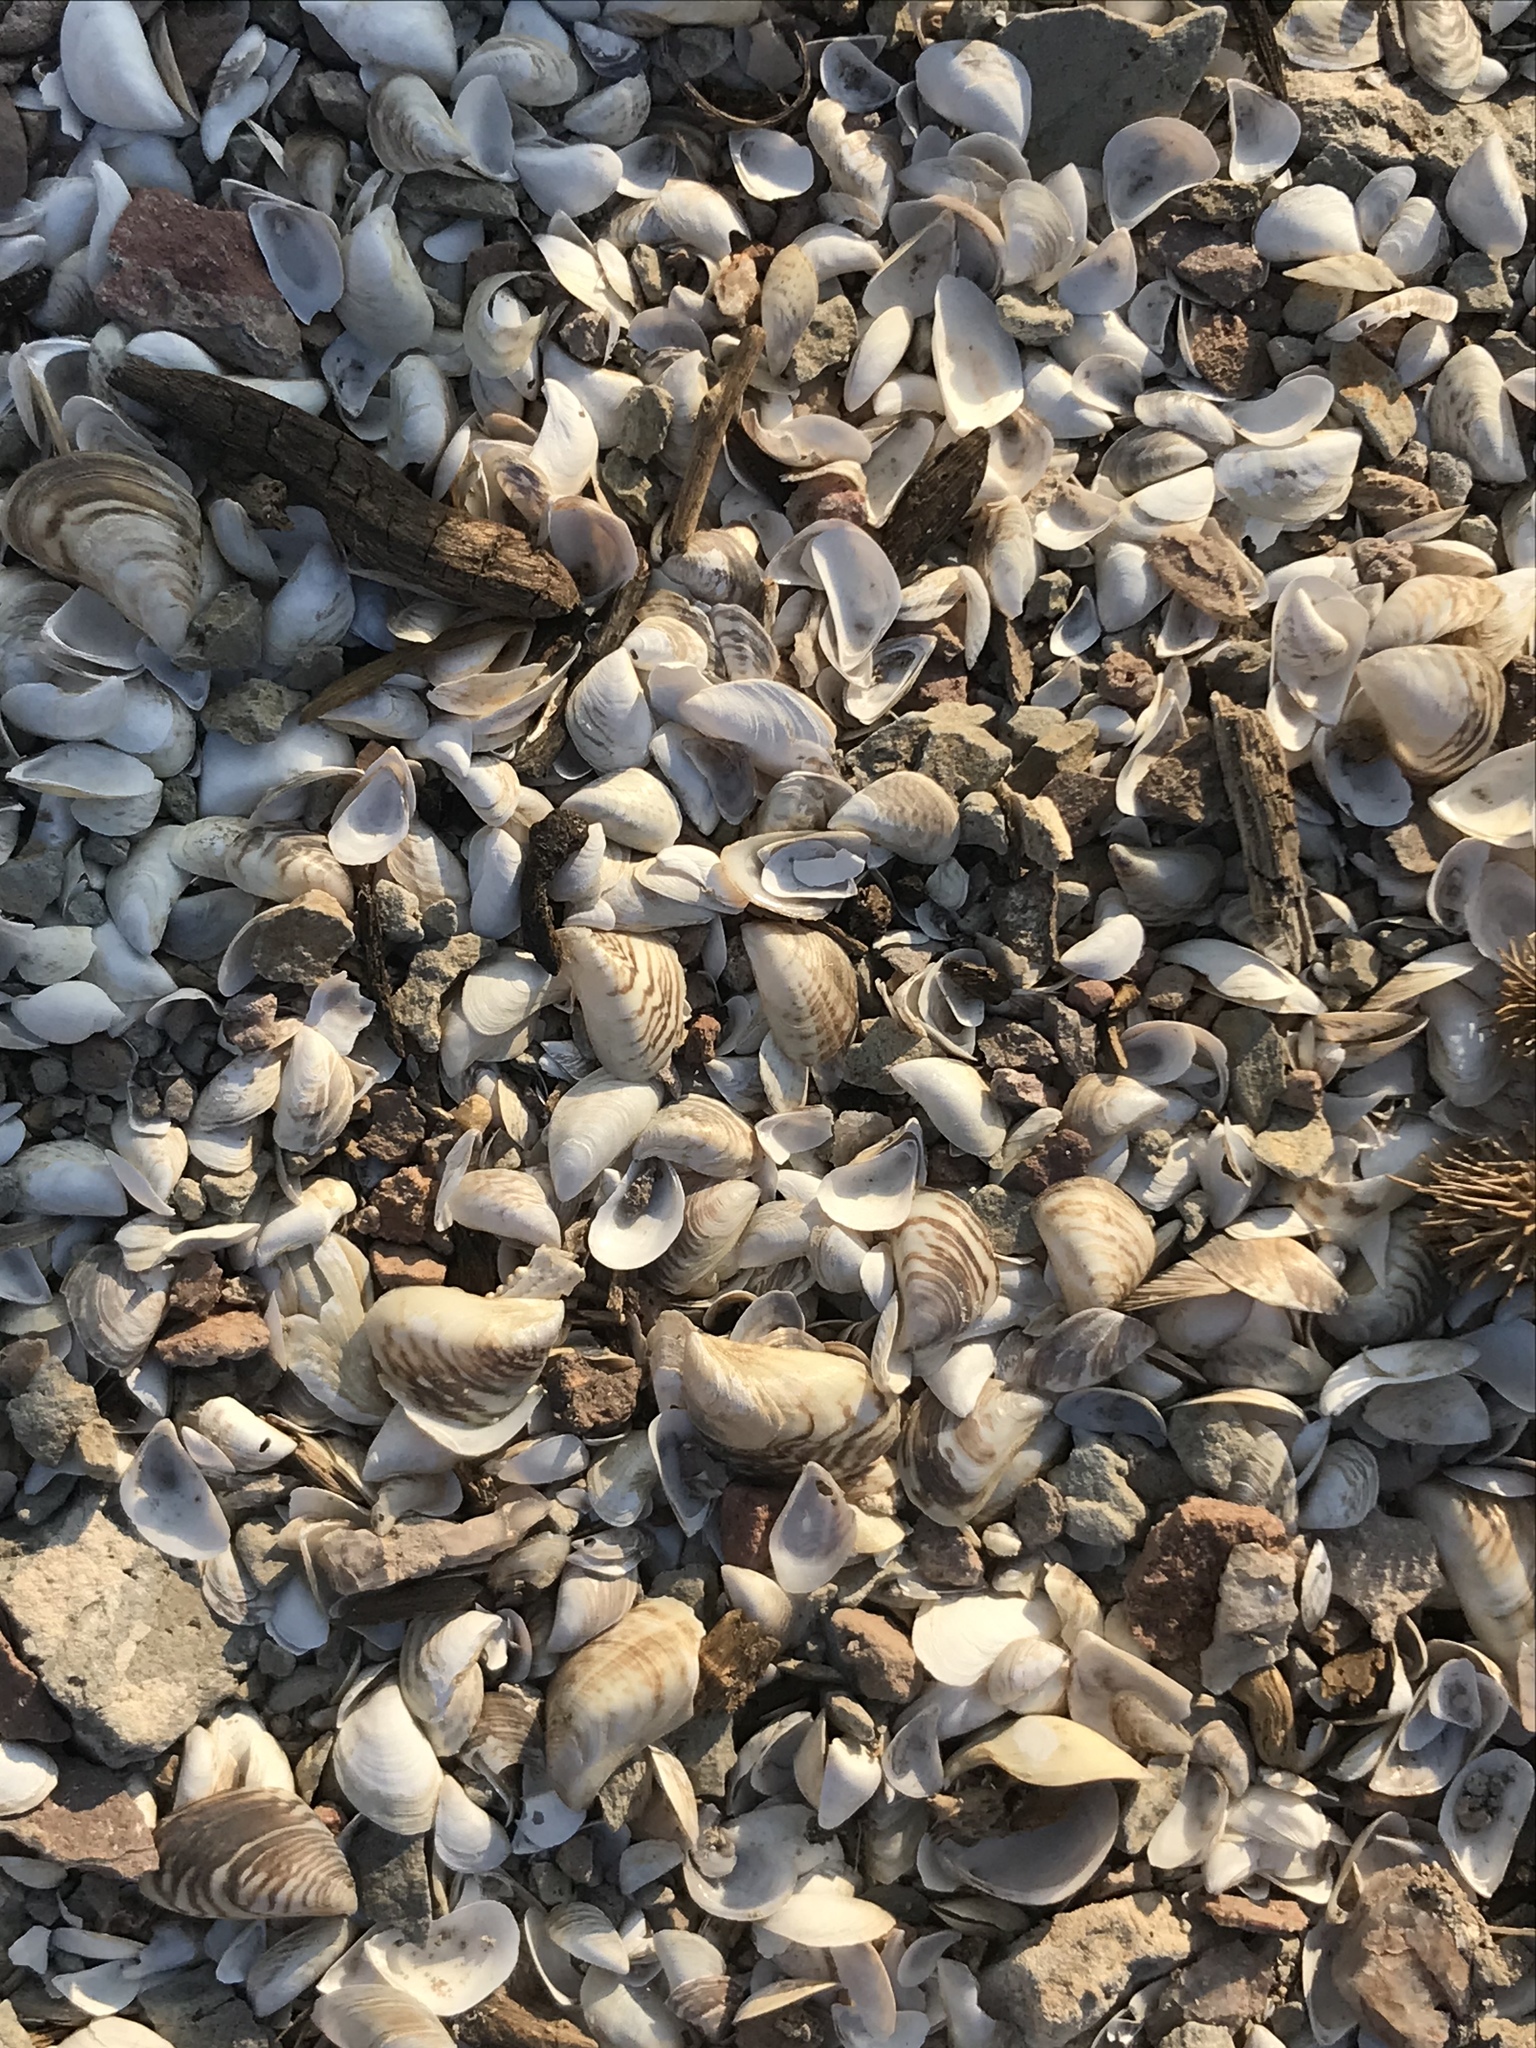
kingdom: Animalia
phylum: Mollusca
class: Bivalvia
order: Myida
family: Dreissenidae
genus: Dreissena
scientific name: Dreissena bugensis
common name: Quagga mussel
